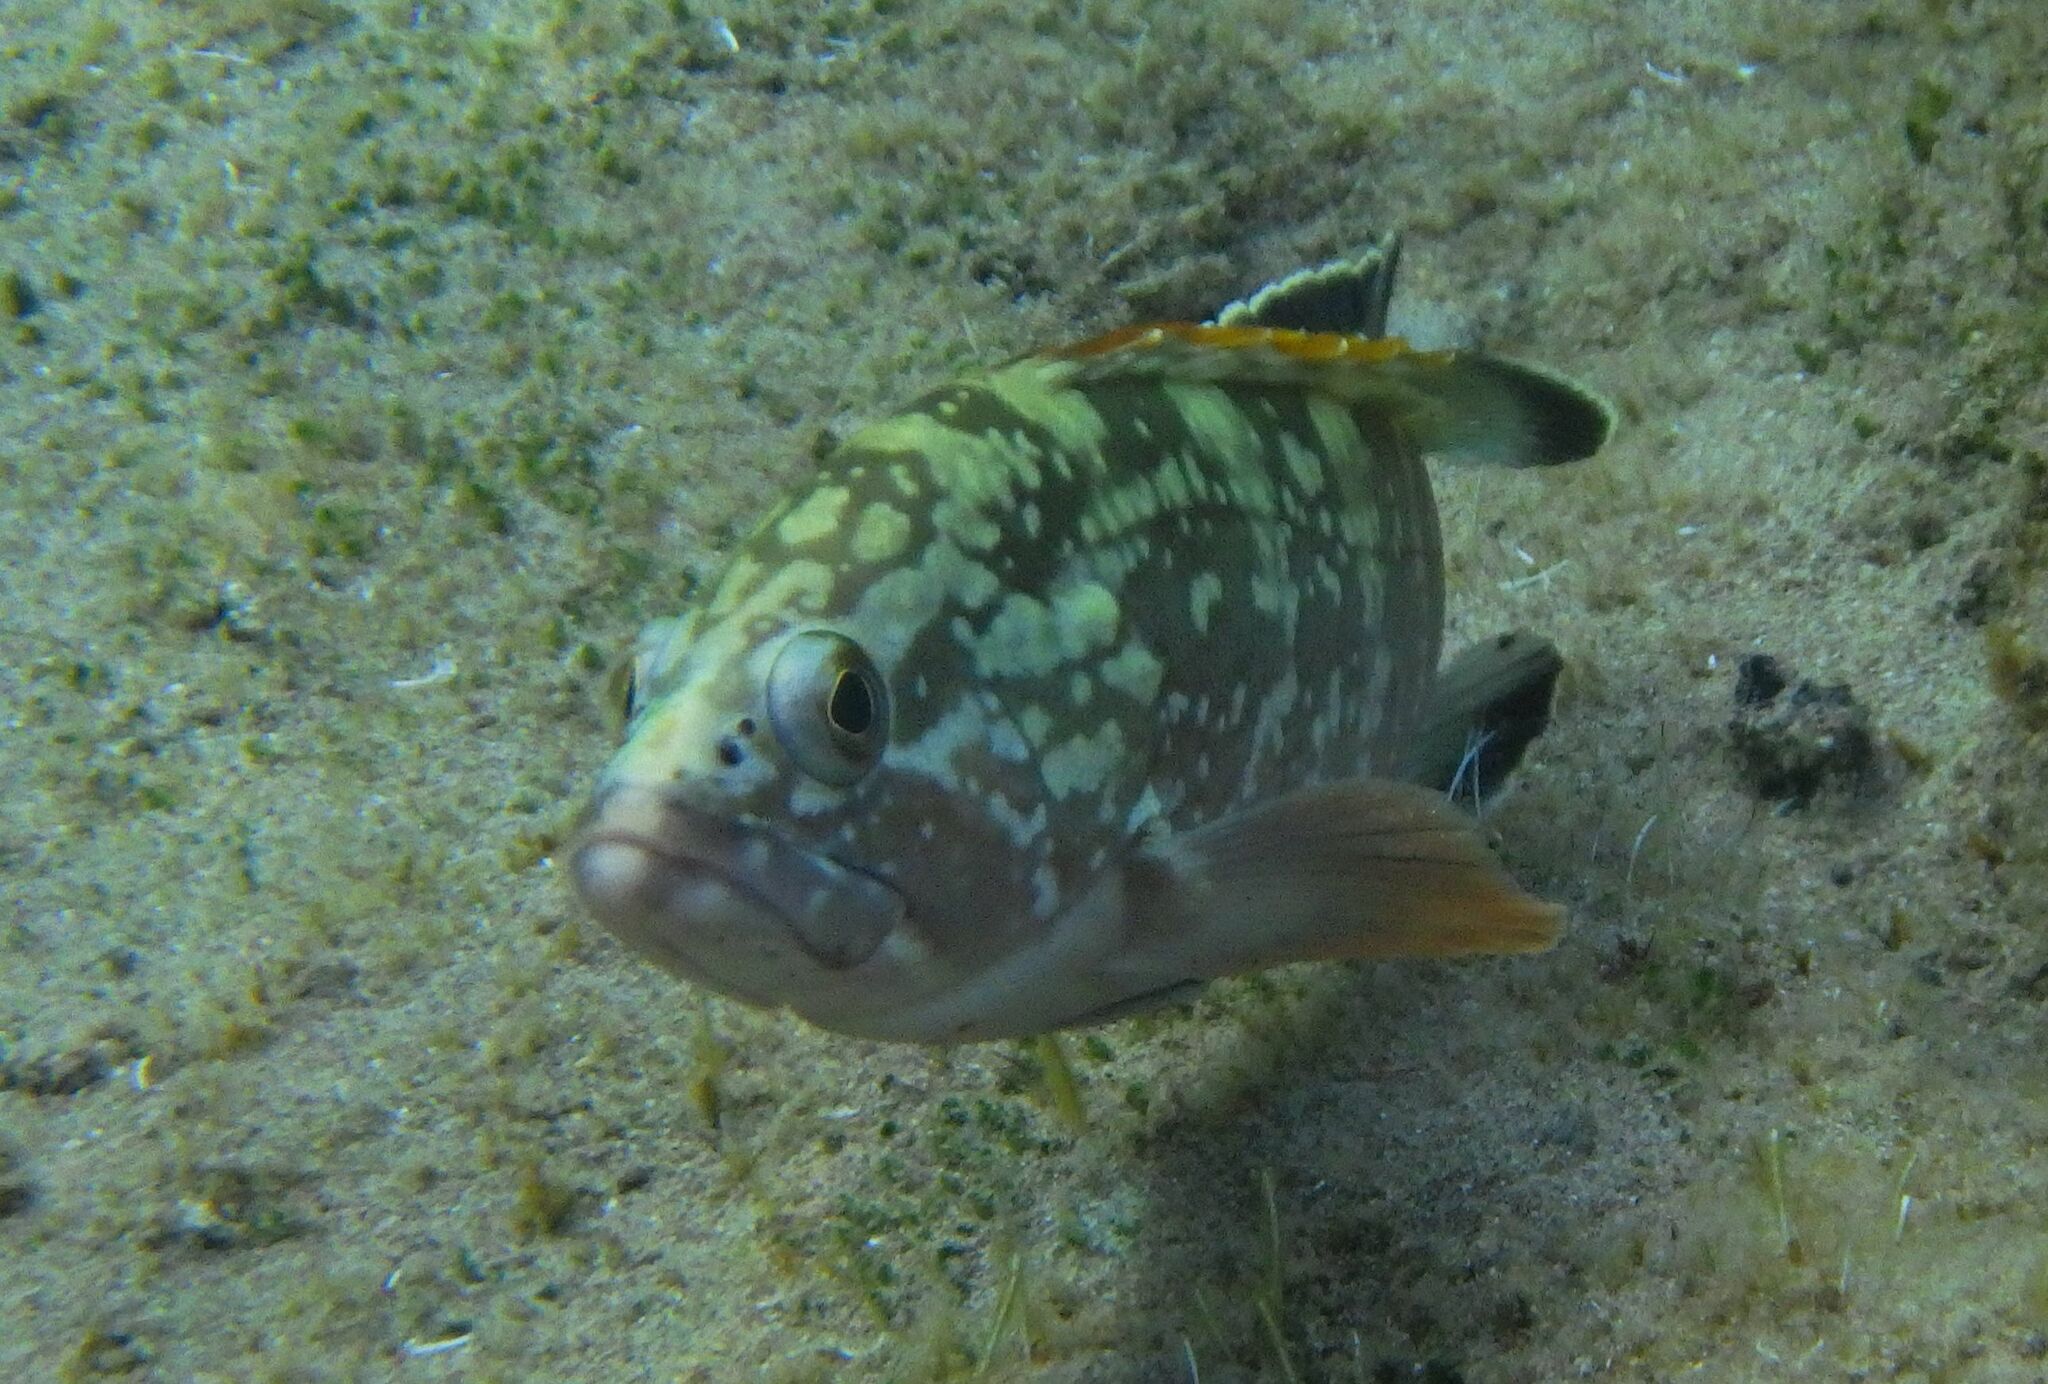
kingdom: Animalia
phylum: Chordata
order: Perciformes
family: Serranidae
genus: Epinephelus
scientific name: Epinephelus marginatus
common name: Dusky grouper
